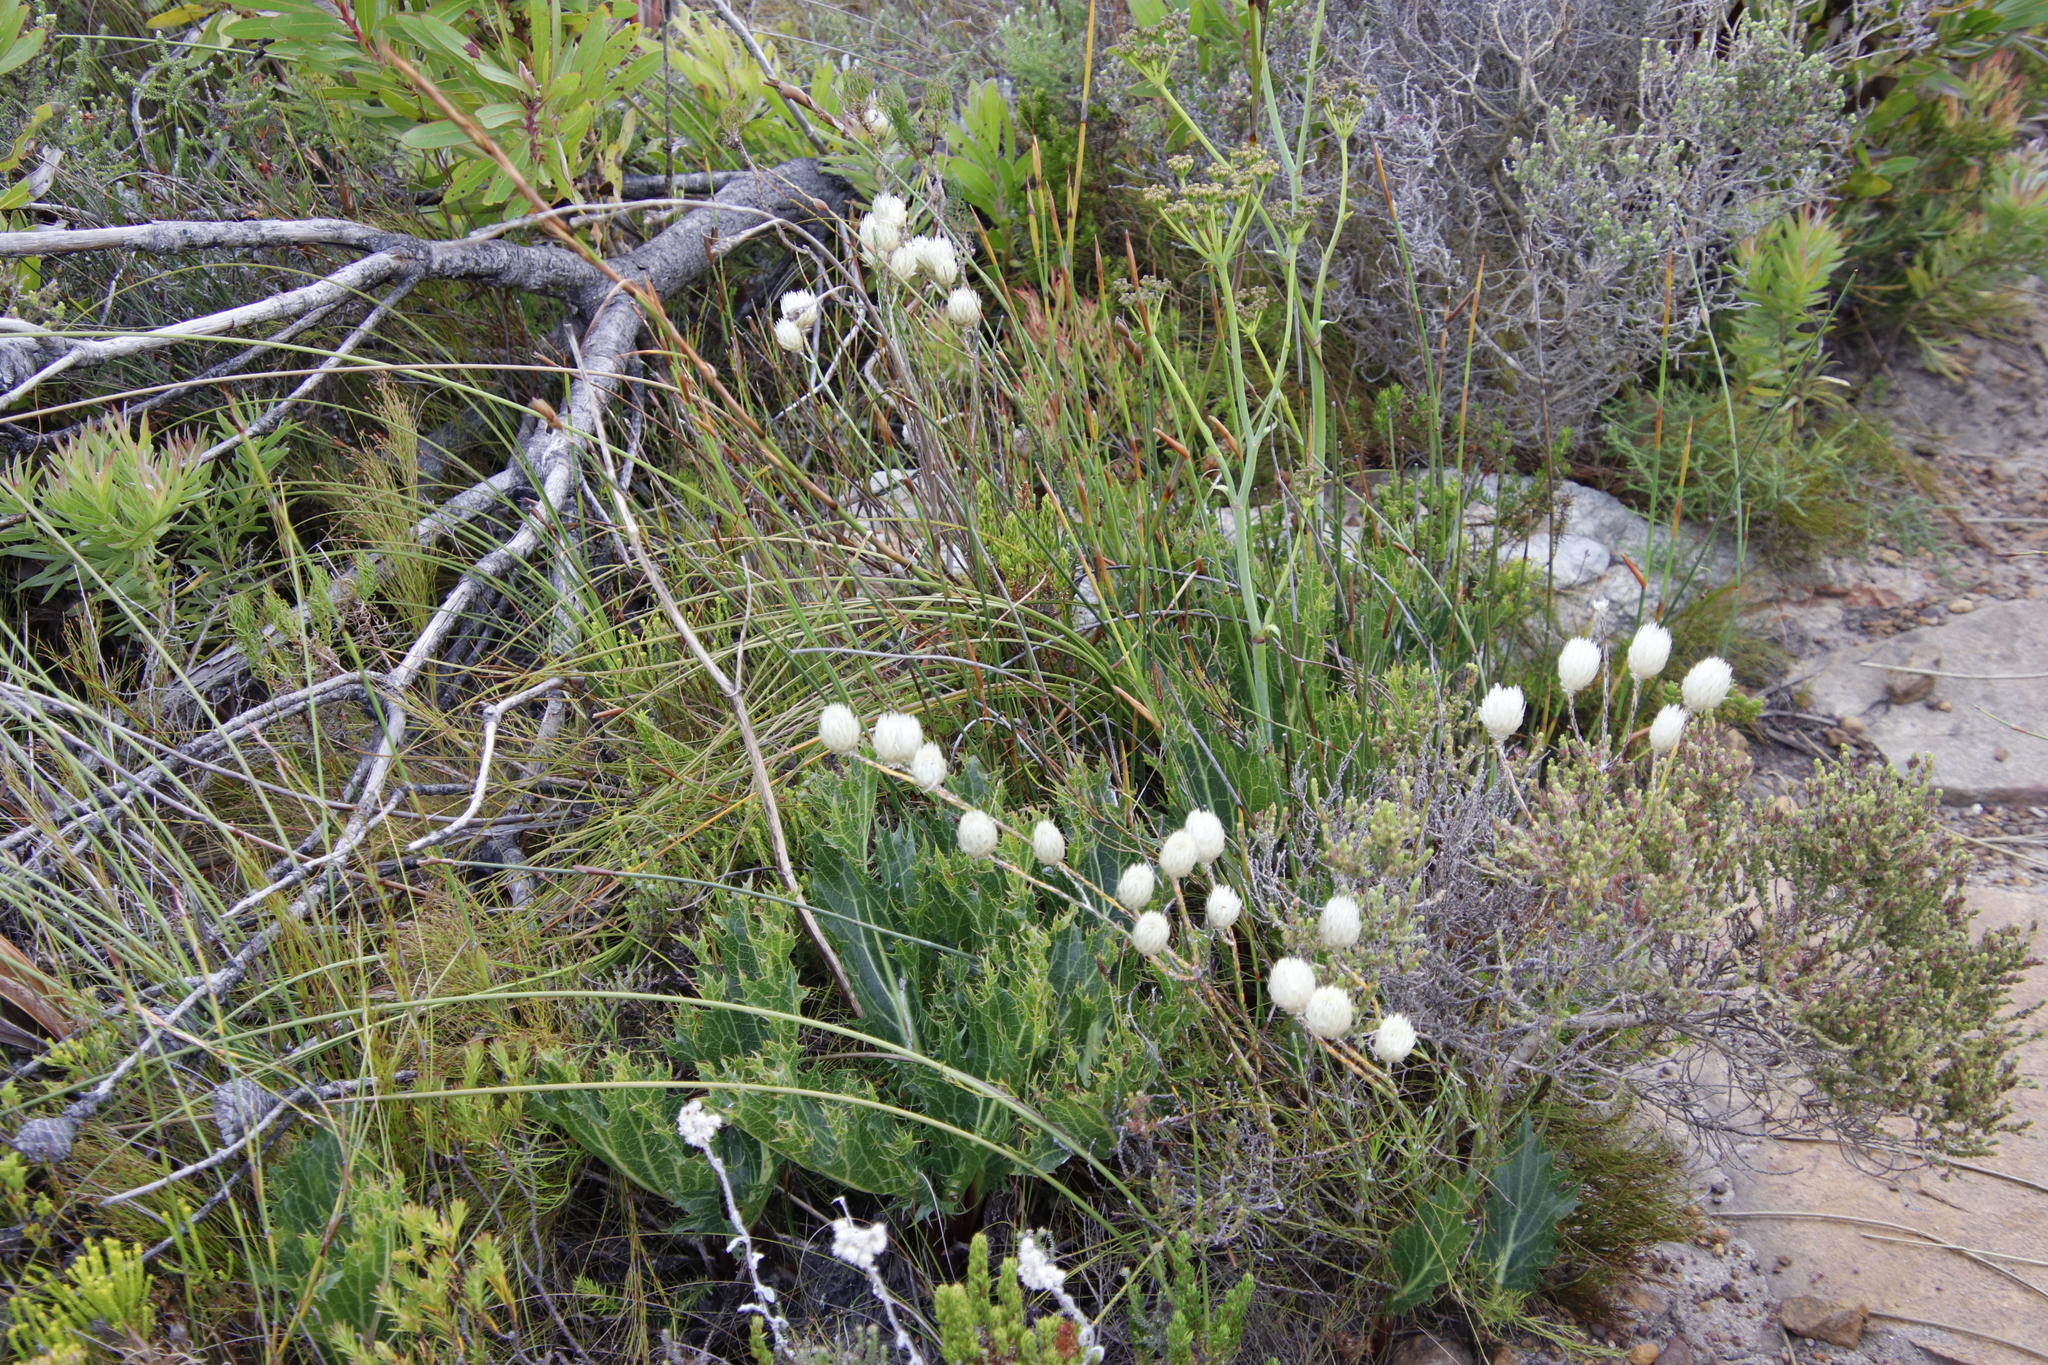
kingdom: Plantae
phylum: Tracheophyta
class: Magnoliopsida
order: Apiales
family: Apiaceae
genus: Lichtensteinia
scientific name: Lichtensteinia lacera
